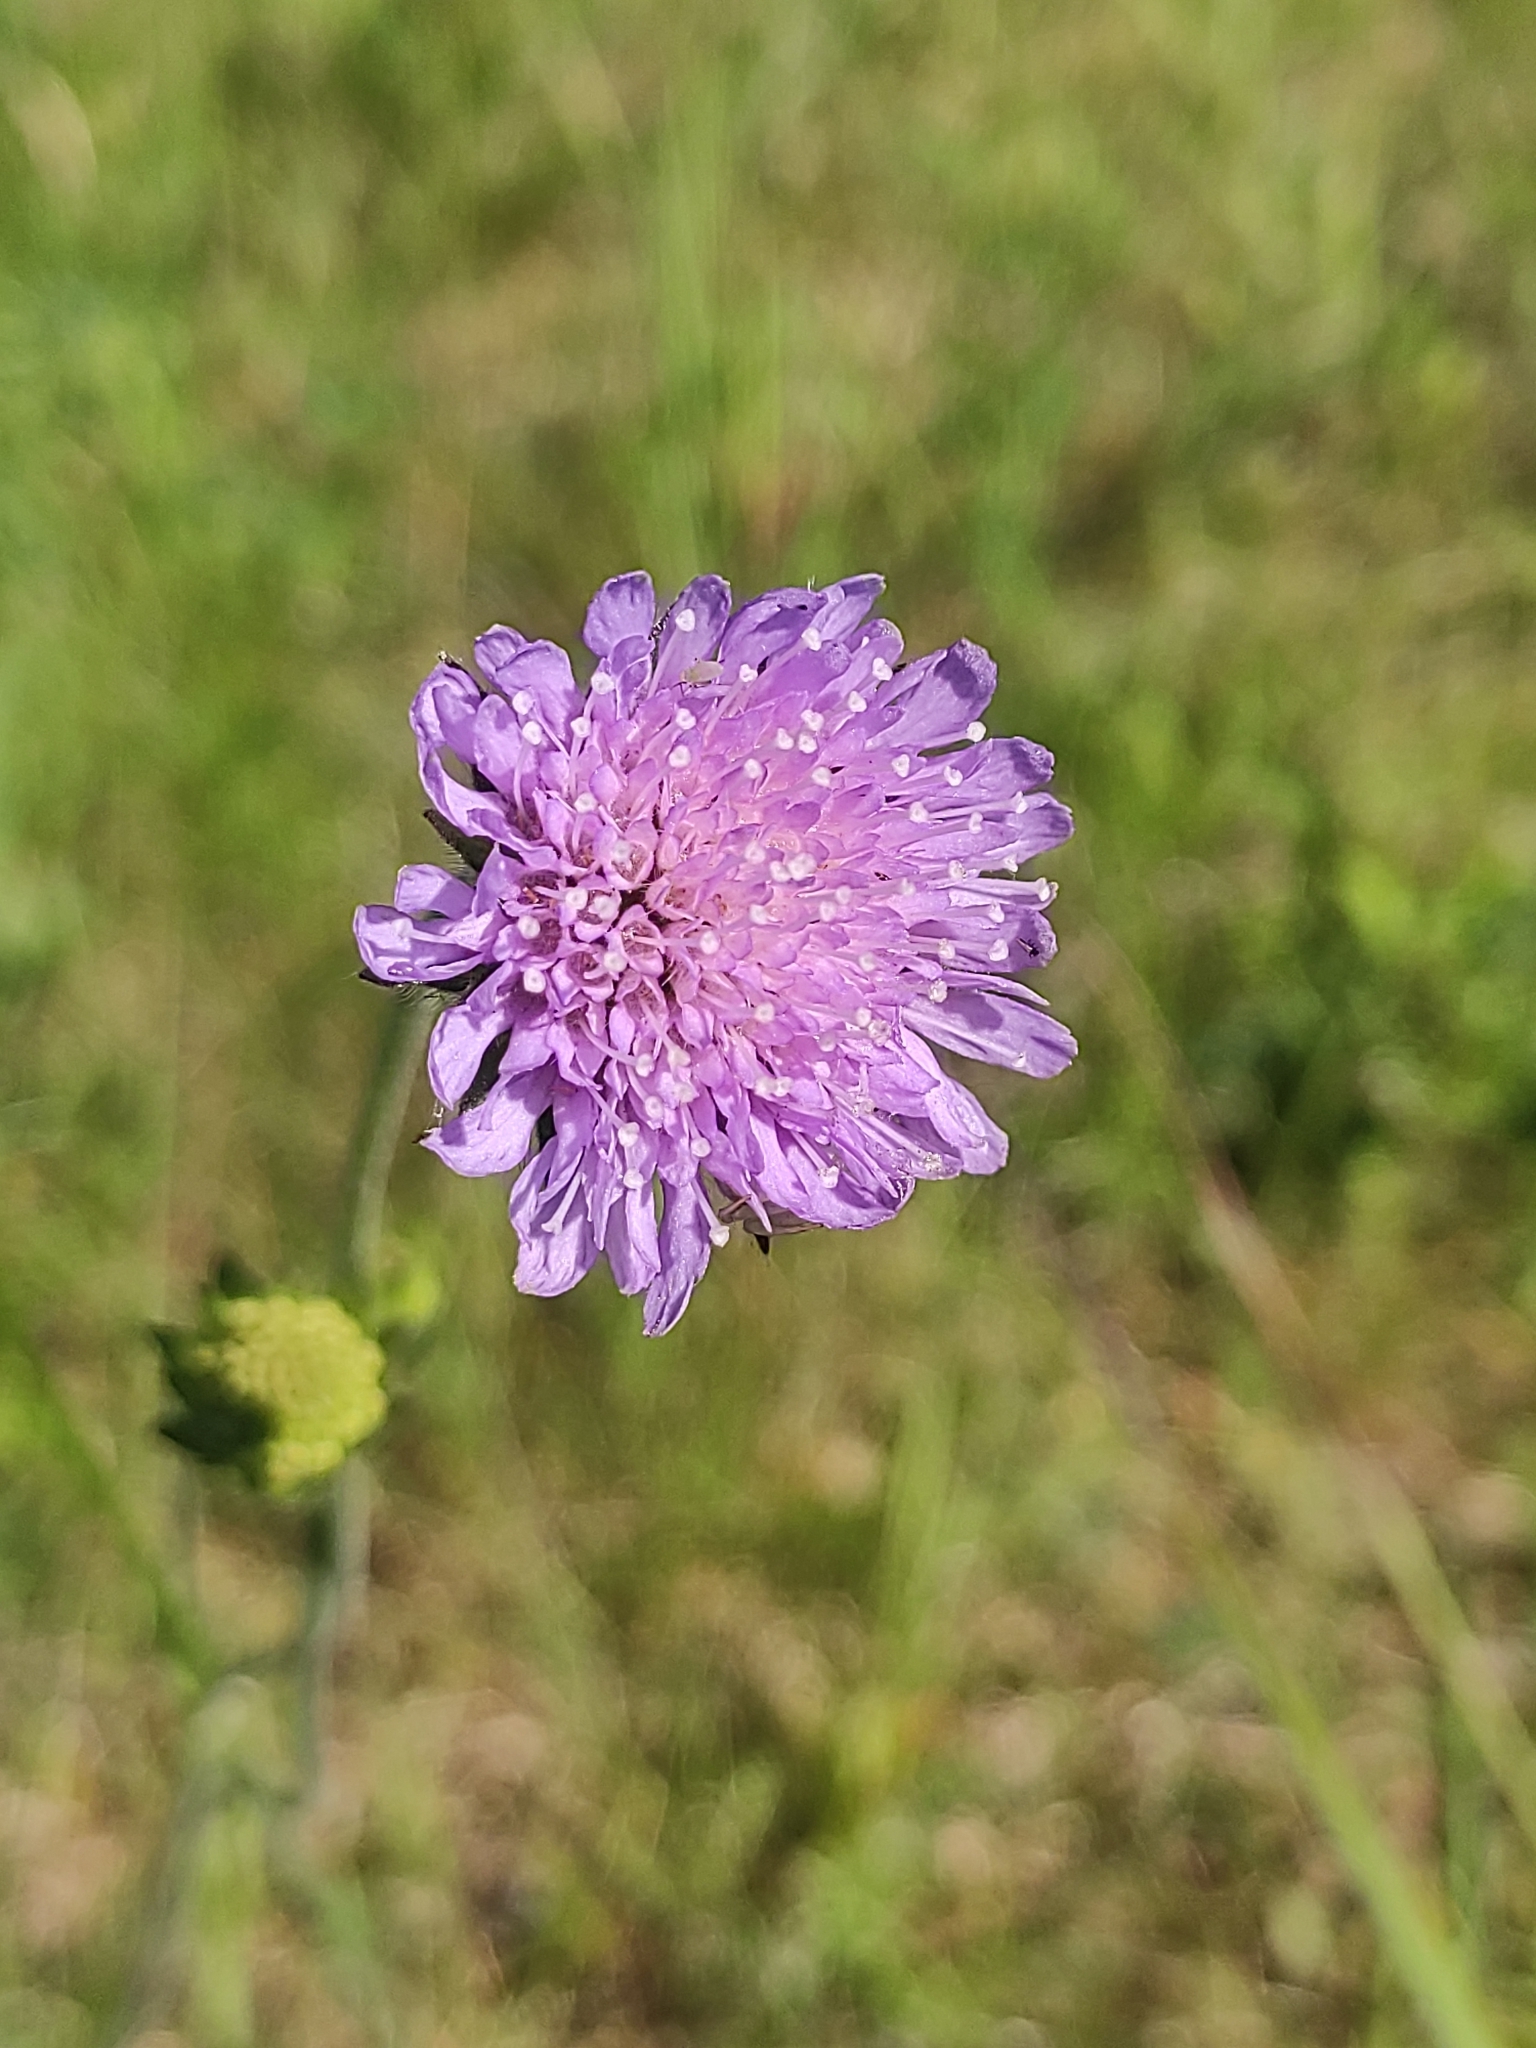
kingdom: Plantae
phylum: Tracheophyta
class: Magnoliopsida
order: Dipsacales
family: Caprifoliaceae
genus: Knautia
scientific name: Knautia arvensis
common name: Field scabiosa
